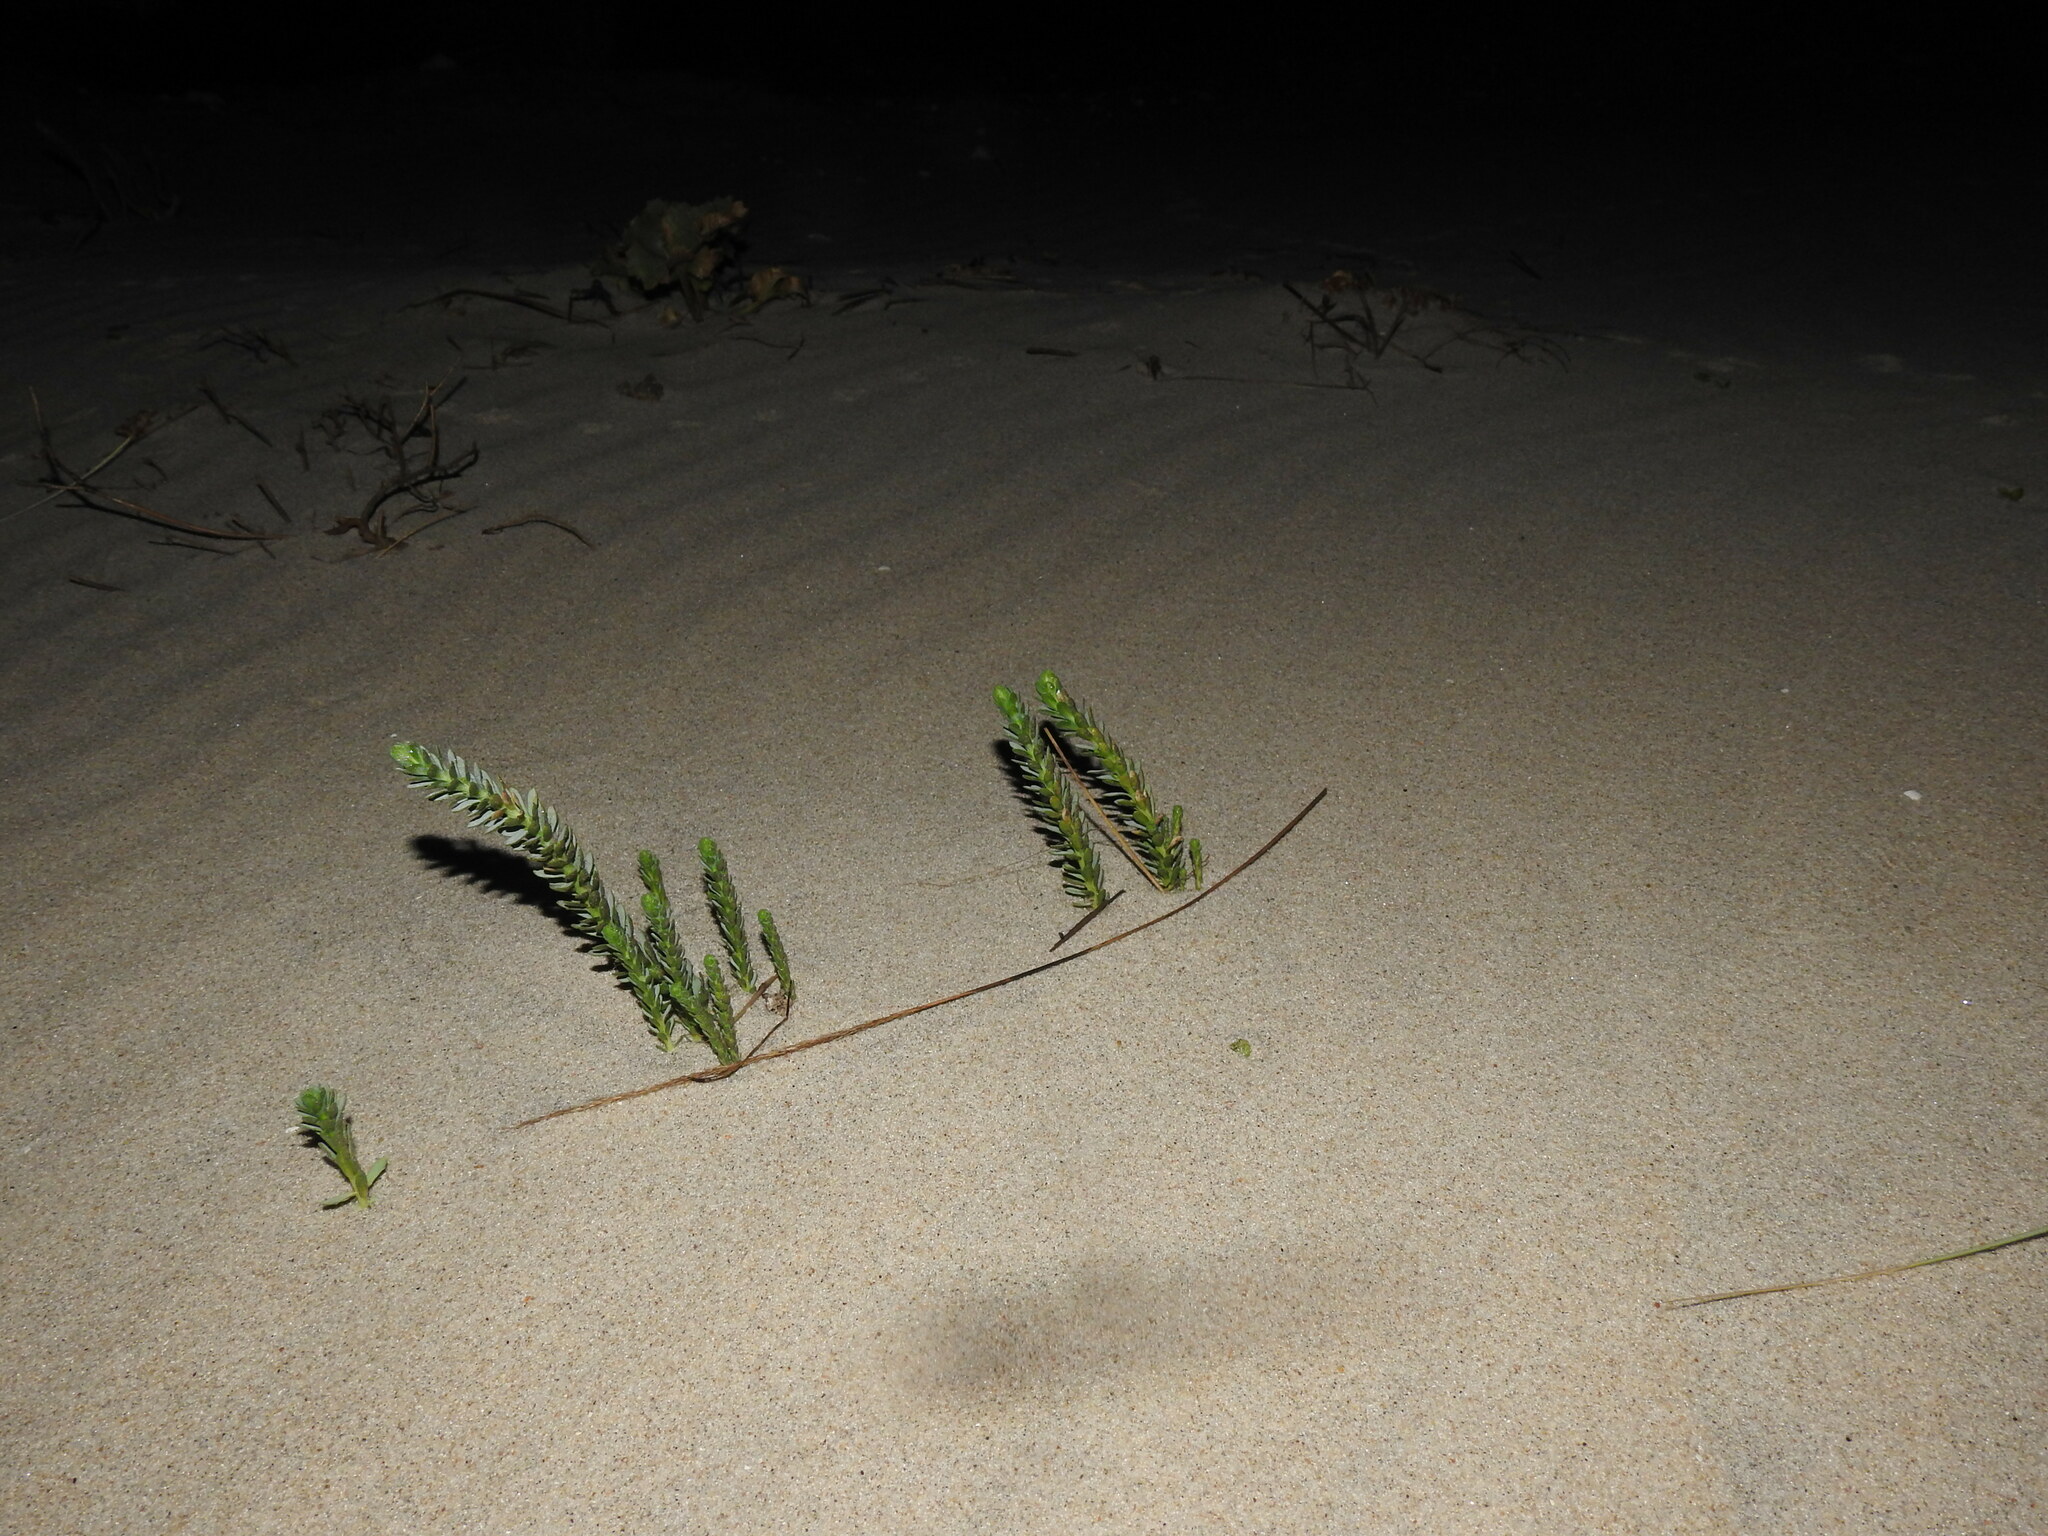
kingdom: Plantae
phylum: Tracheophyta
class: Magnoliopsida
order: Malpighiales
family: Euphorbiaceae
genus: Euphorbia
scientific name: Euphorbia paralias
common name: Sea spurge
